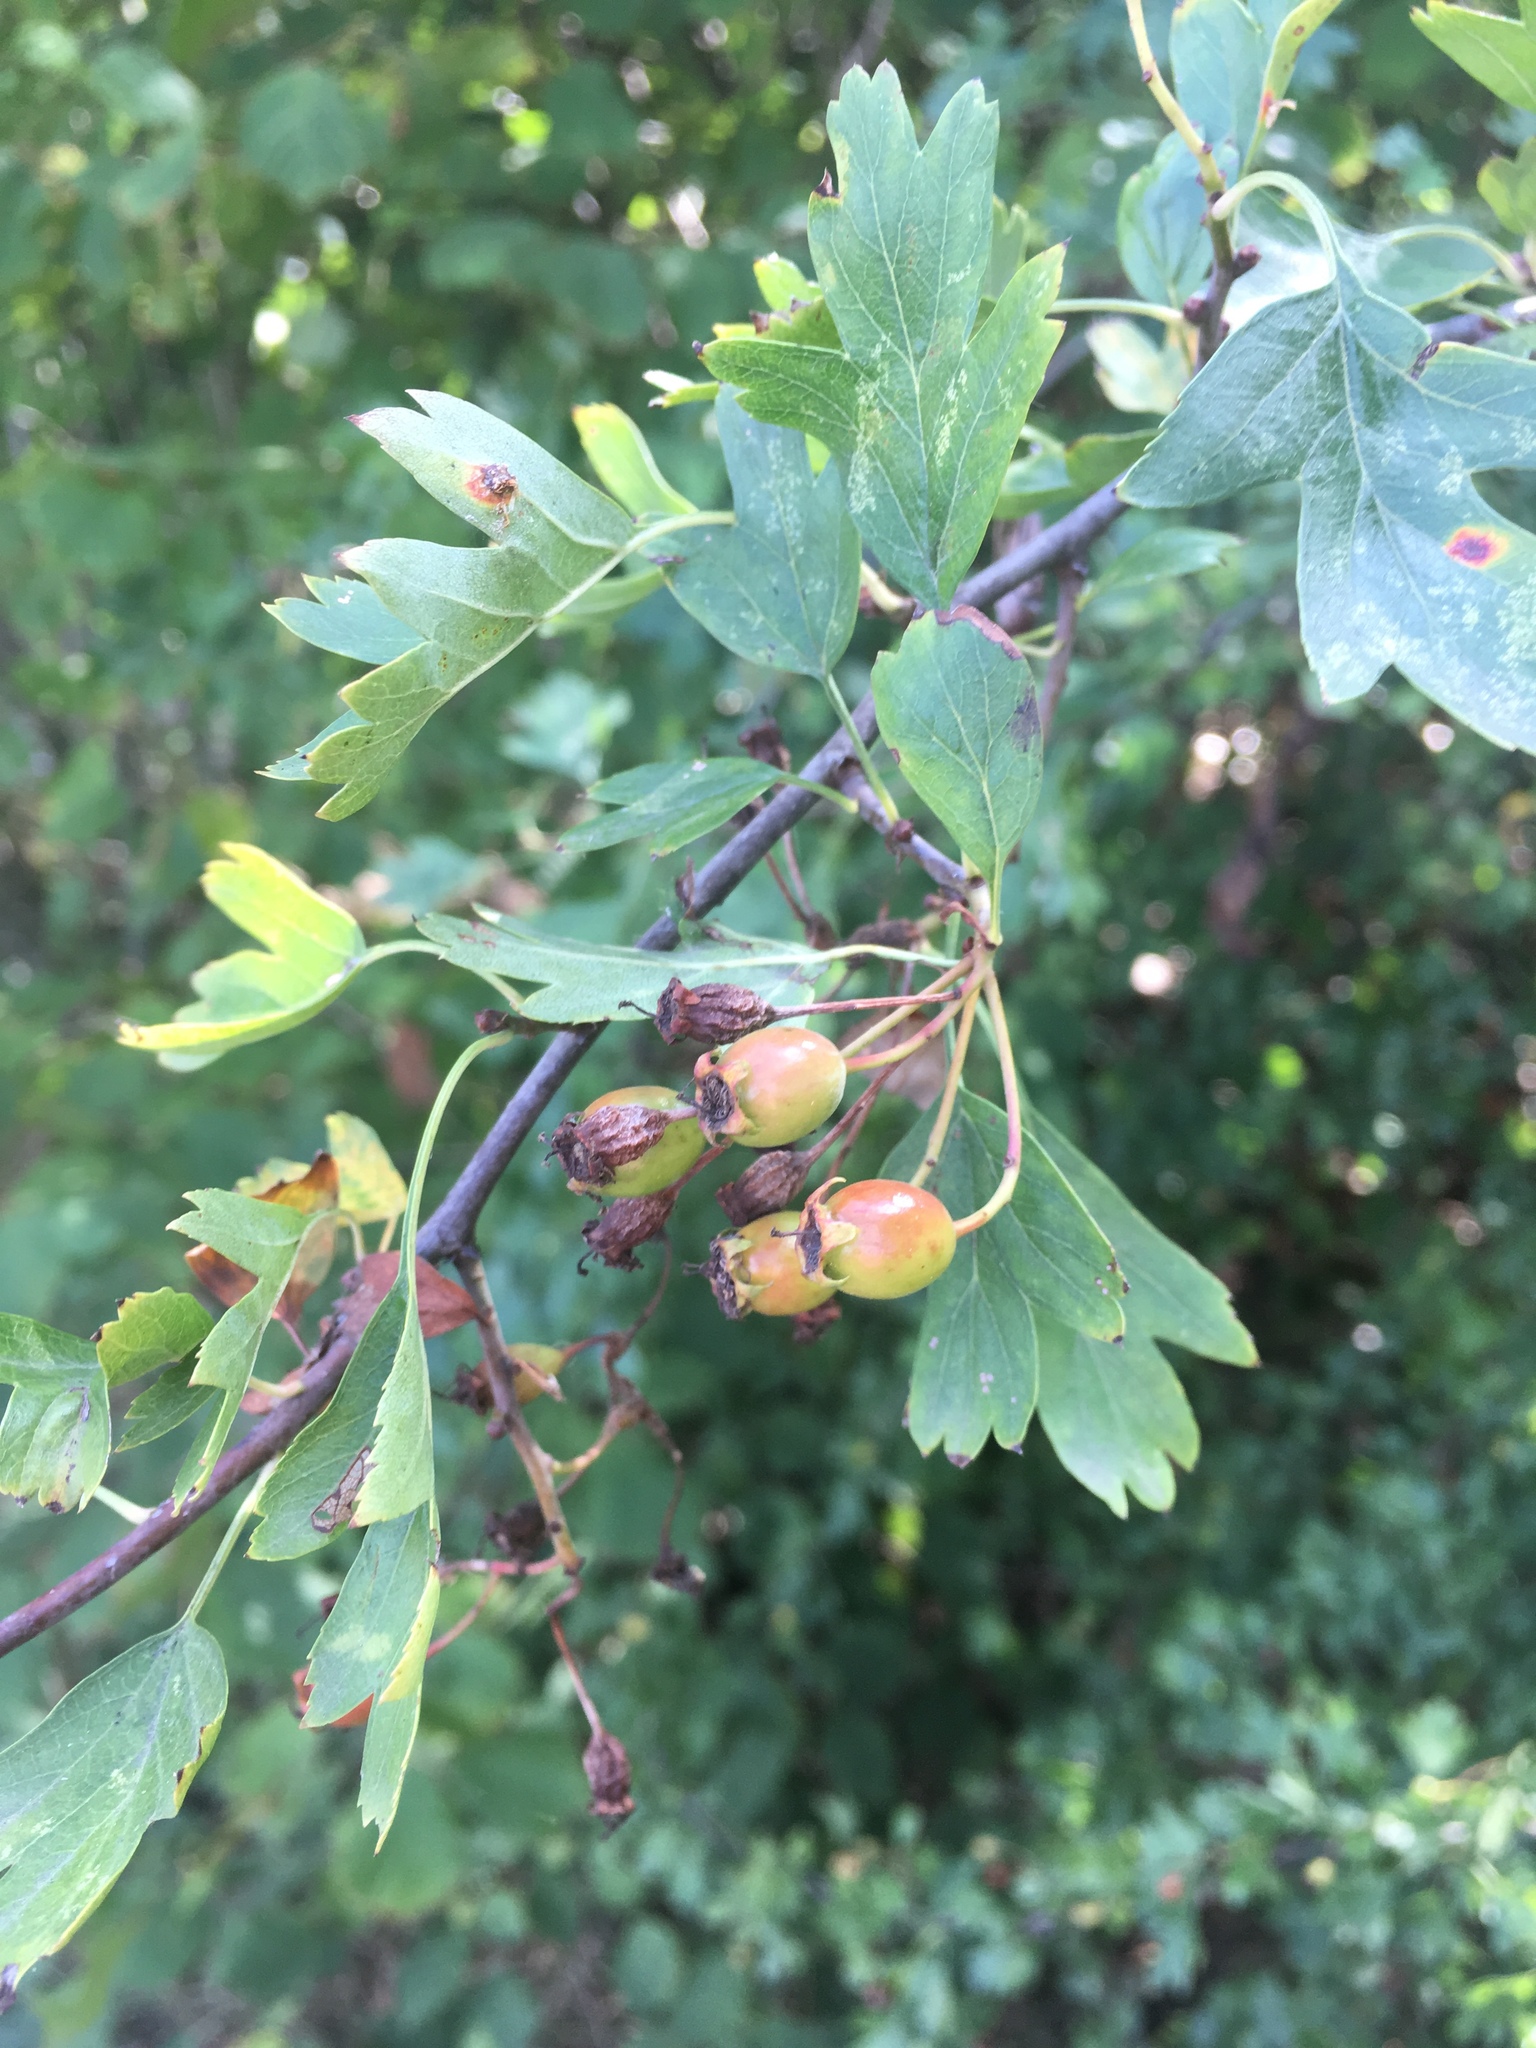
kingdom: Plantae
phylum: Tracheophyta
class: Magnoliopsida
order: Rosales
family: Rosaceae
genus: Crataegus
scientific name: Crataegus monogyna
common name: Hawthorn
